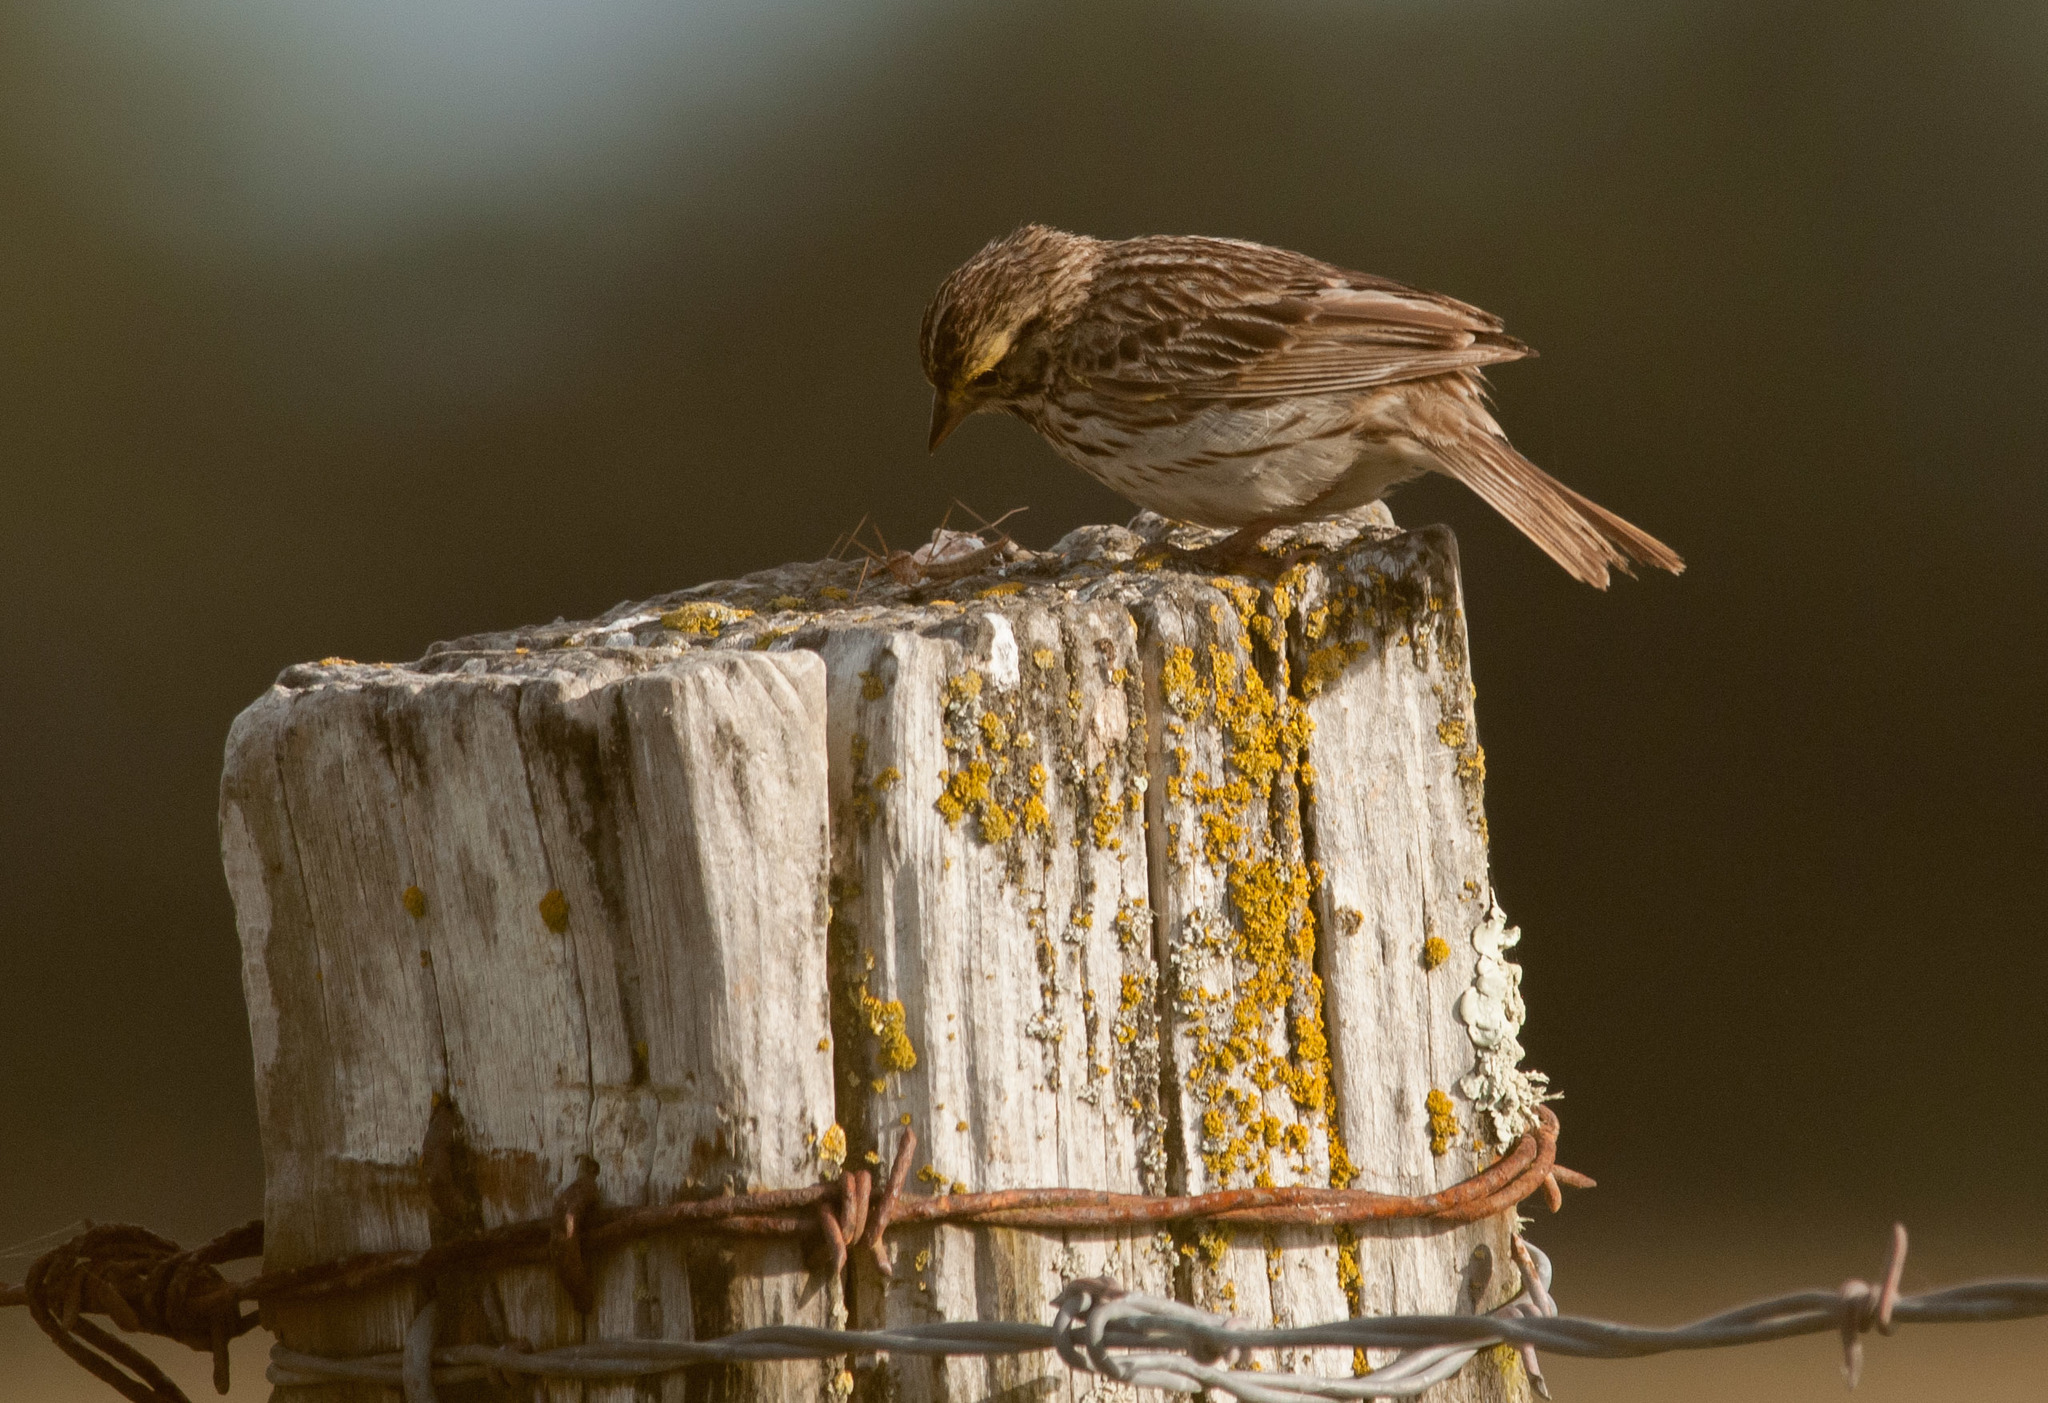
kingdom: Animalia
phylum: Chordata
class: Aves
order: Passeriformes
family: Passerellidae
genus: Passerculus
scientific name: Passerculus sandwichensis
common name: Savannah sparrow
